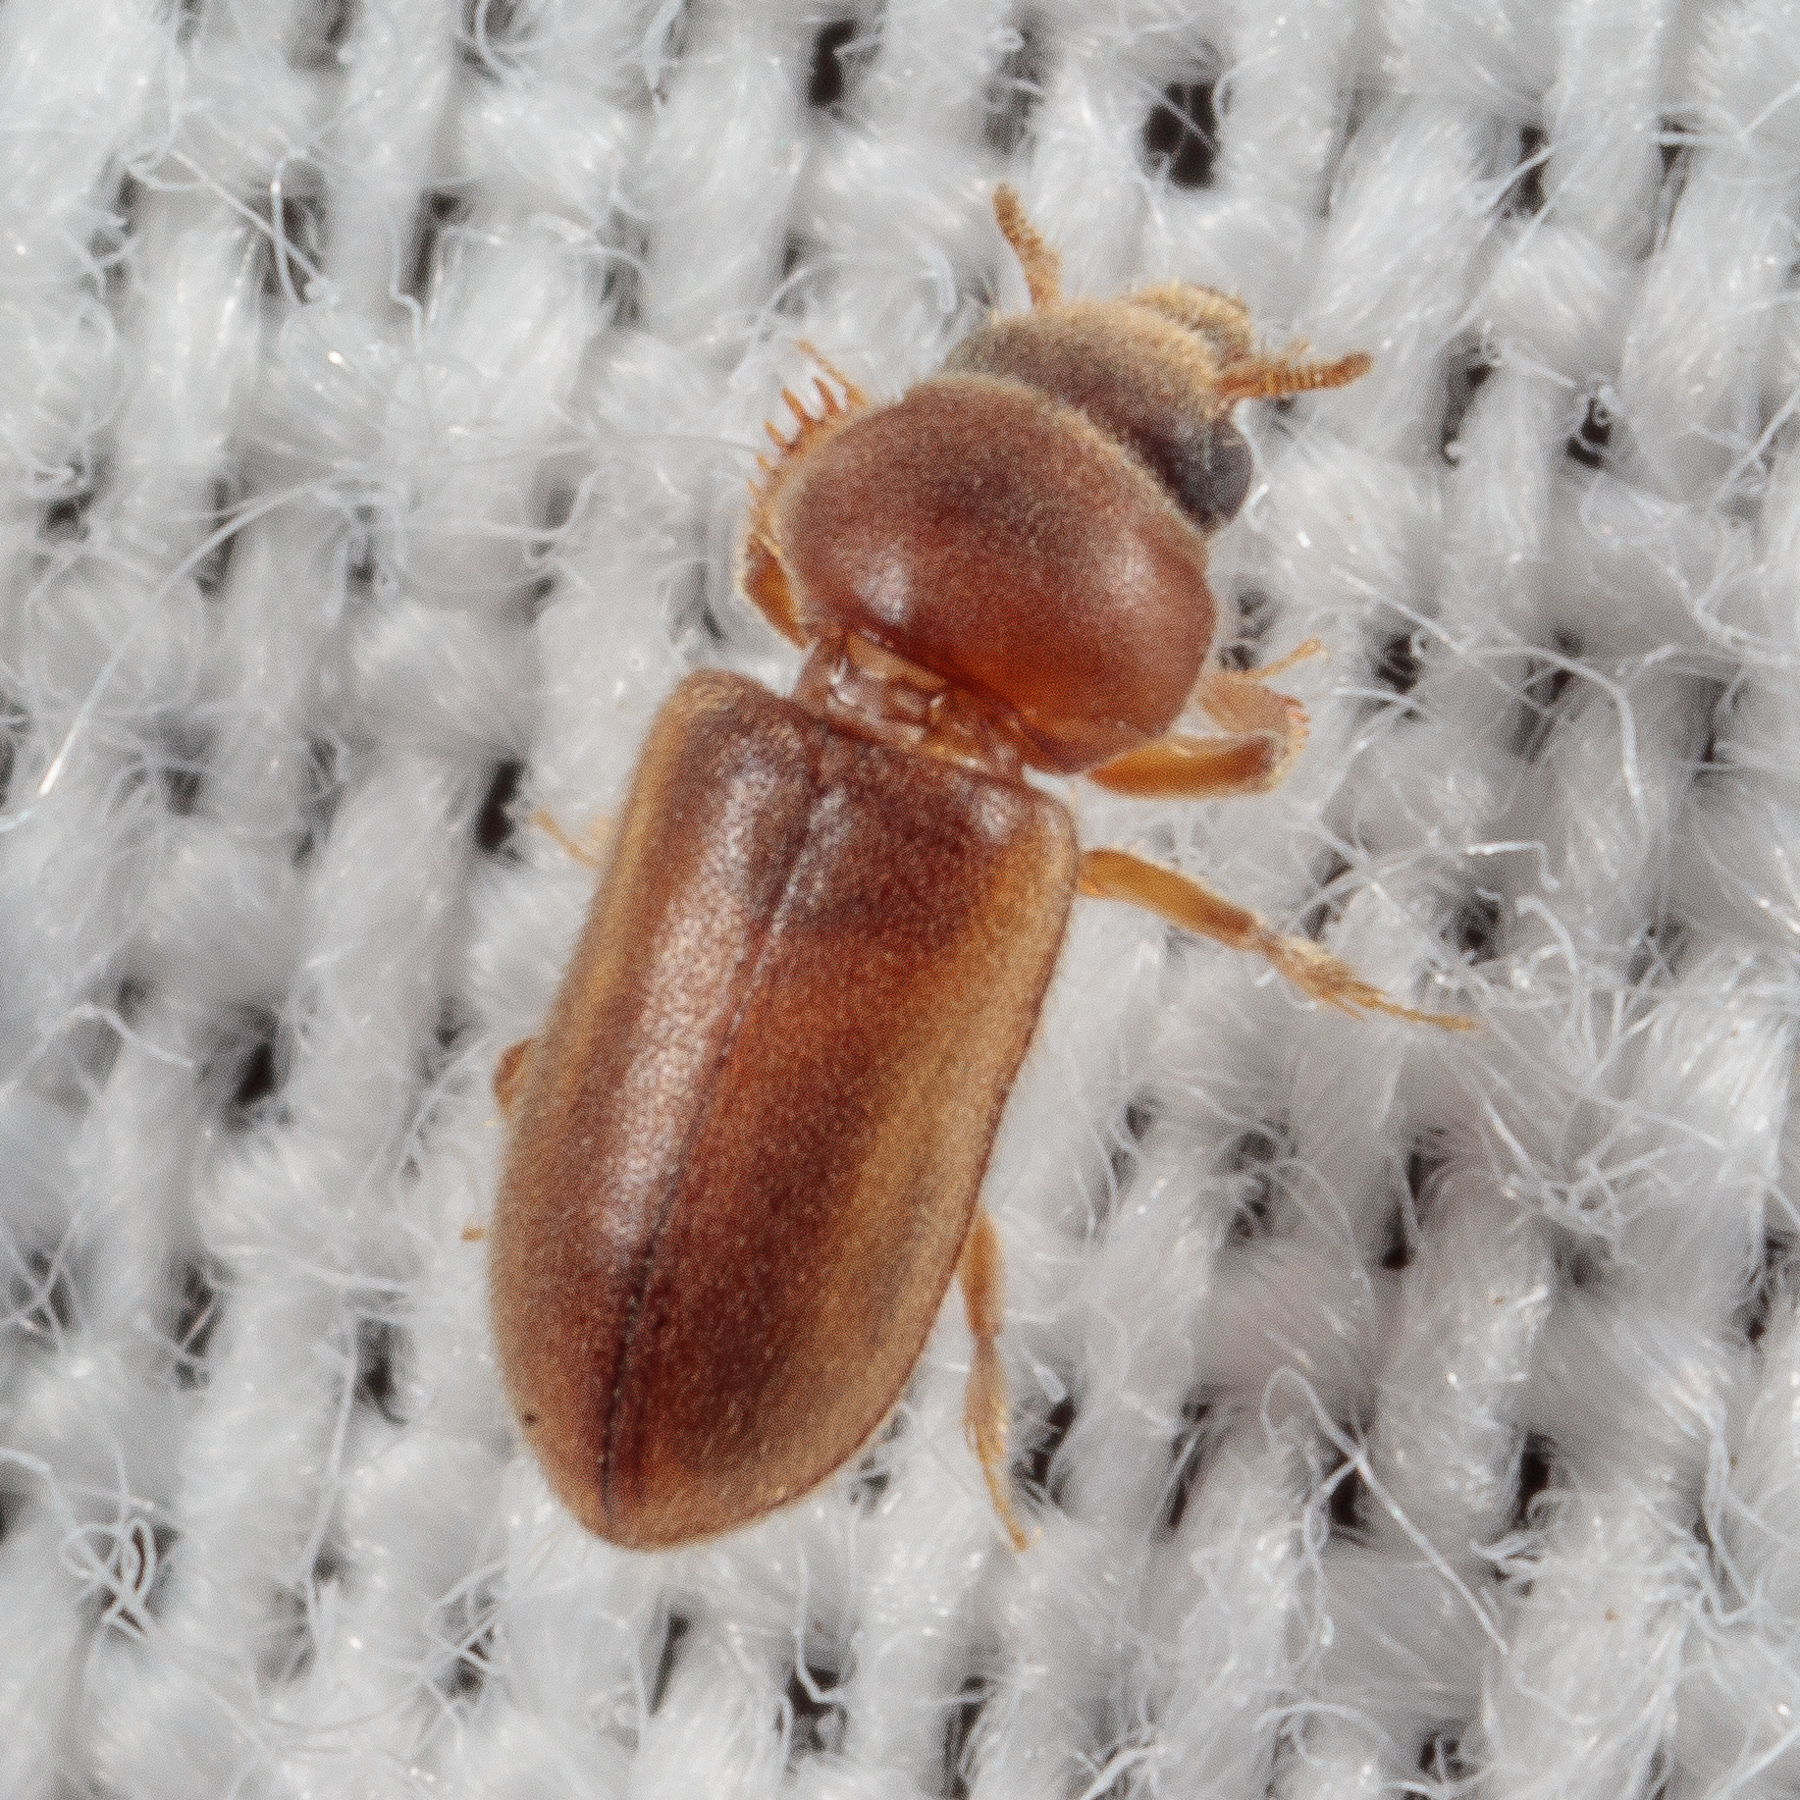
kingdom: Animalia
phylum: Arthropoda
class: Insecta
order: Coleoptera
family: Heteroceridae
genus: Tropicus
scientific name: Tropicus pusillus
